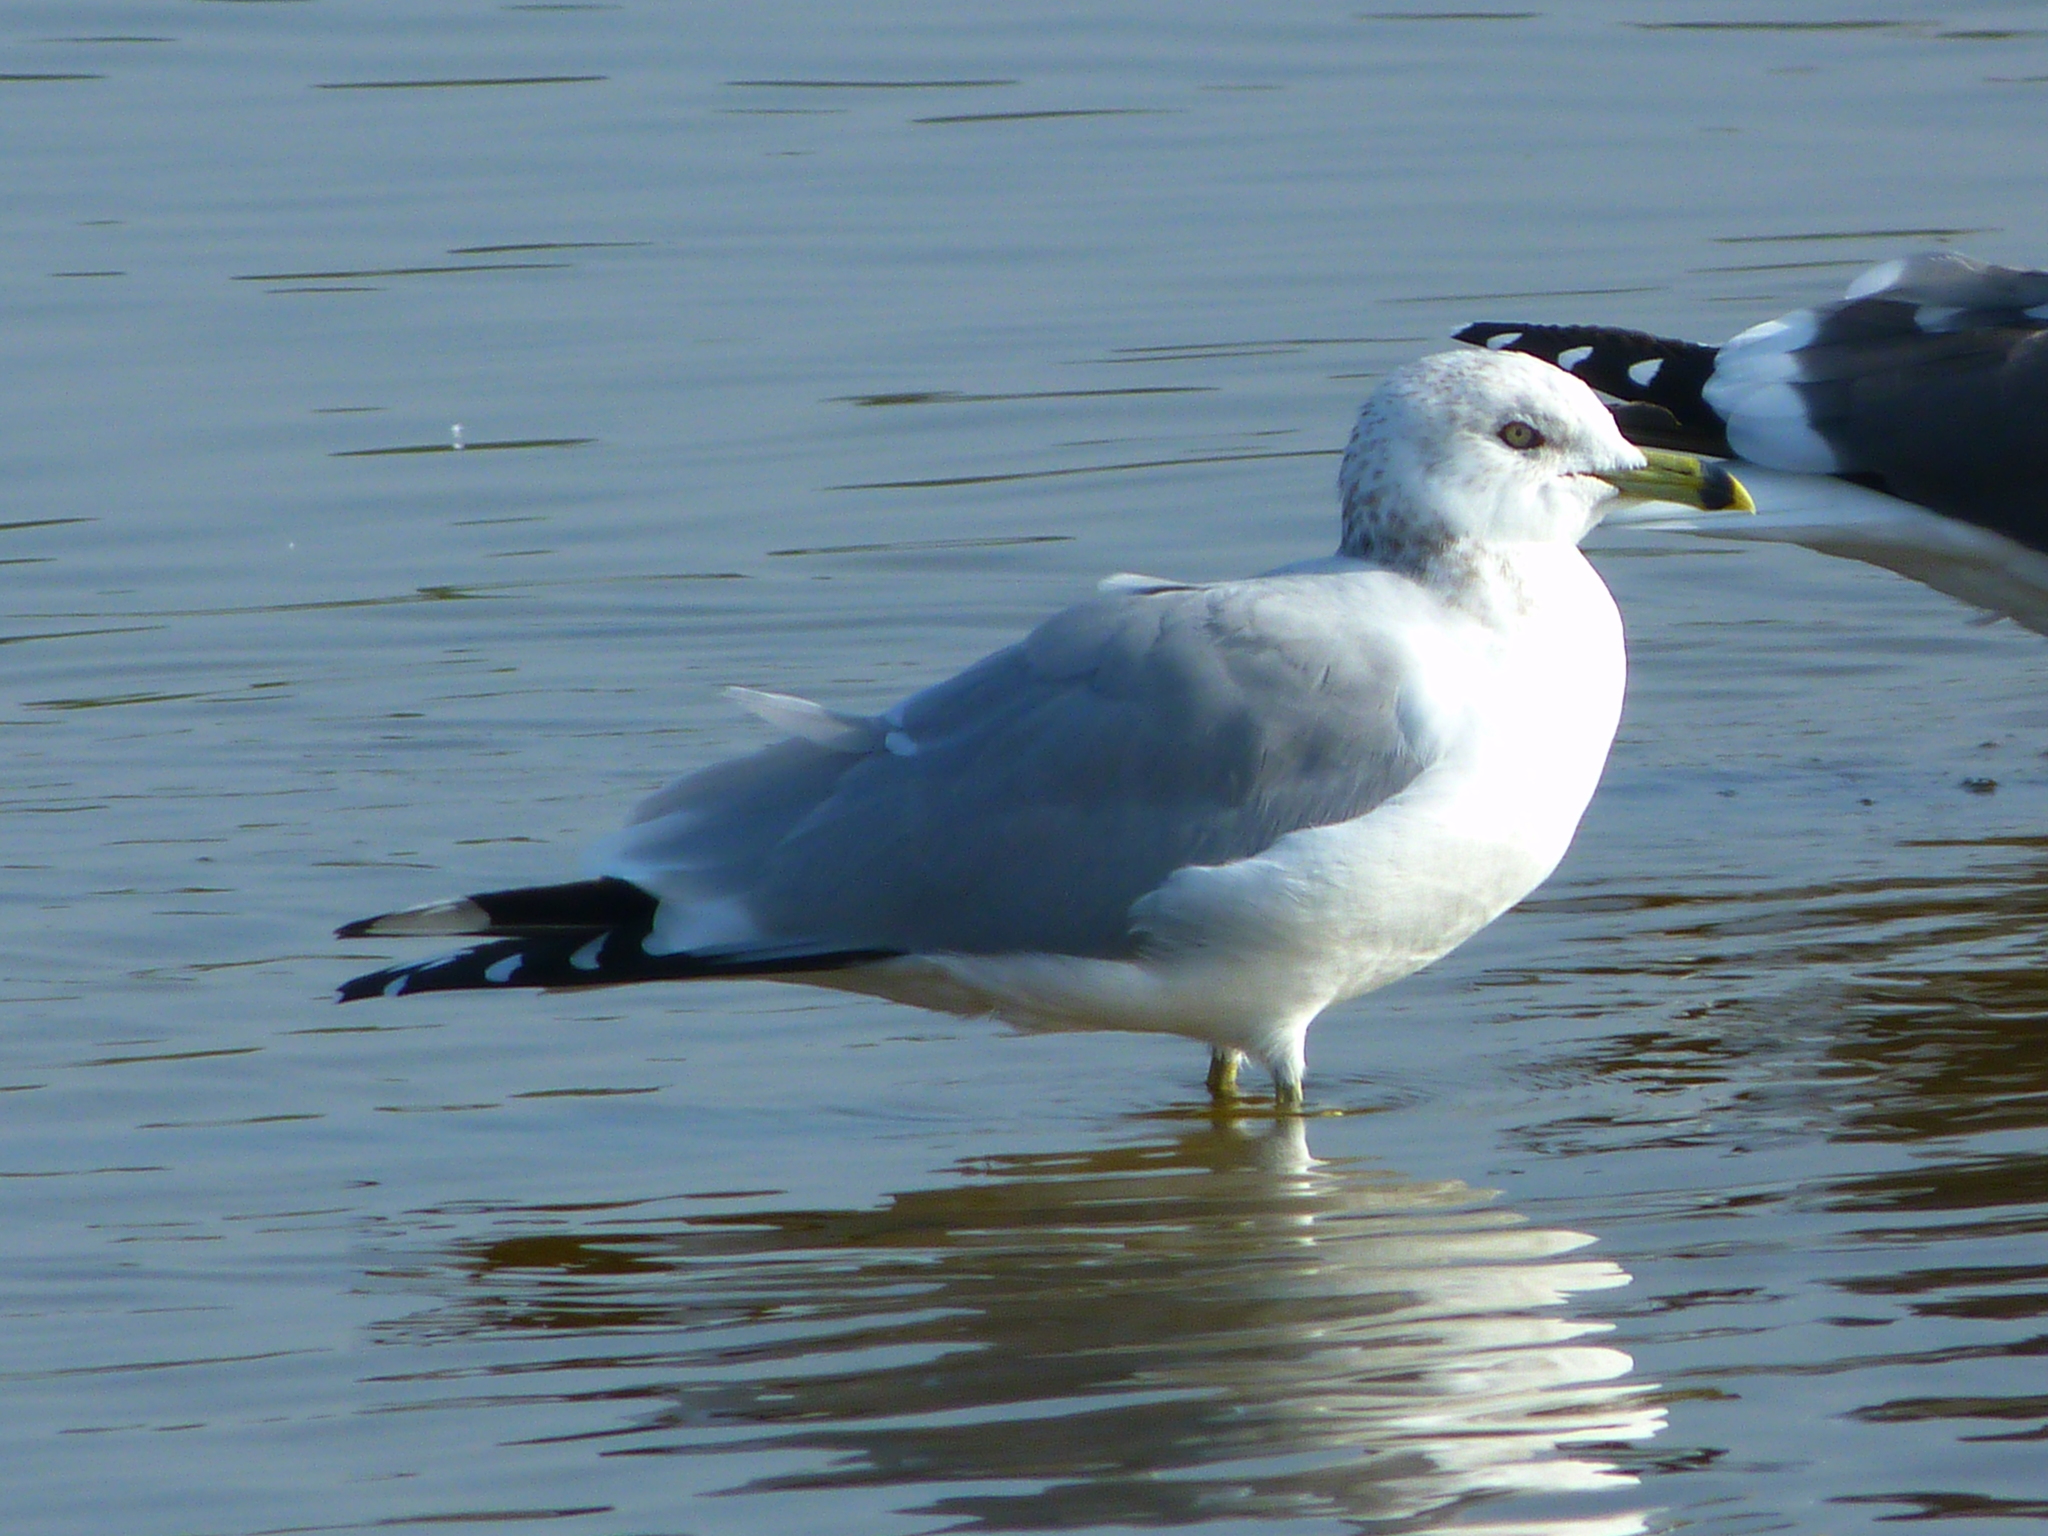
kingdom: Animalia
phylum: Chordata
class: Aves
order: Charadriiformes
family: Laridae
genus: Larus
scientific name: Larus delawarensis
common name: Ring-billed gull
